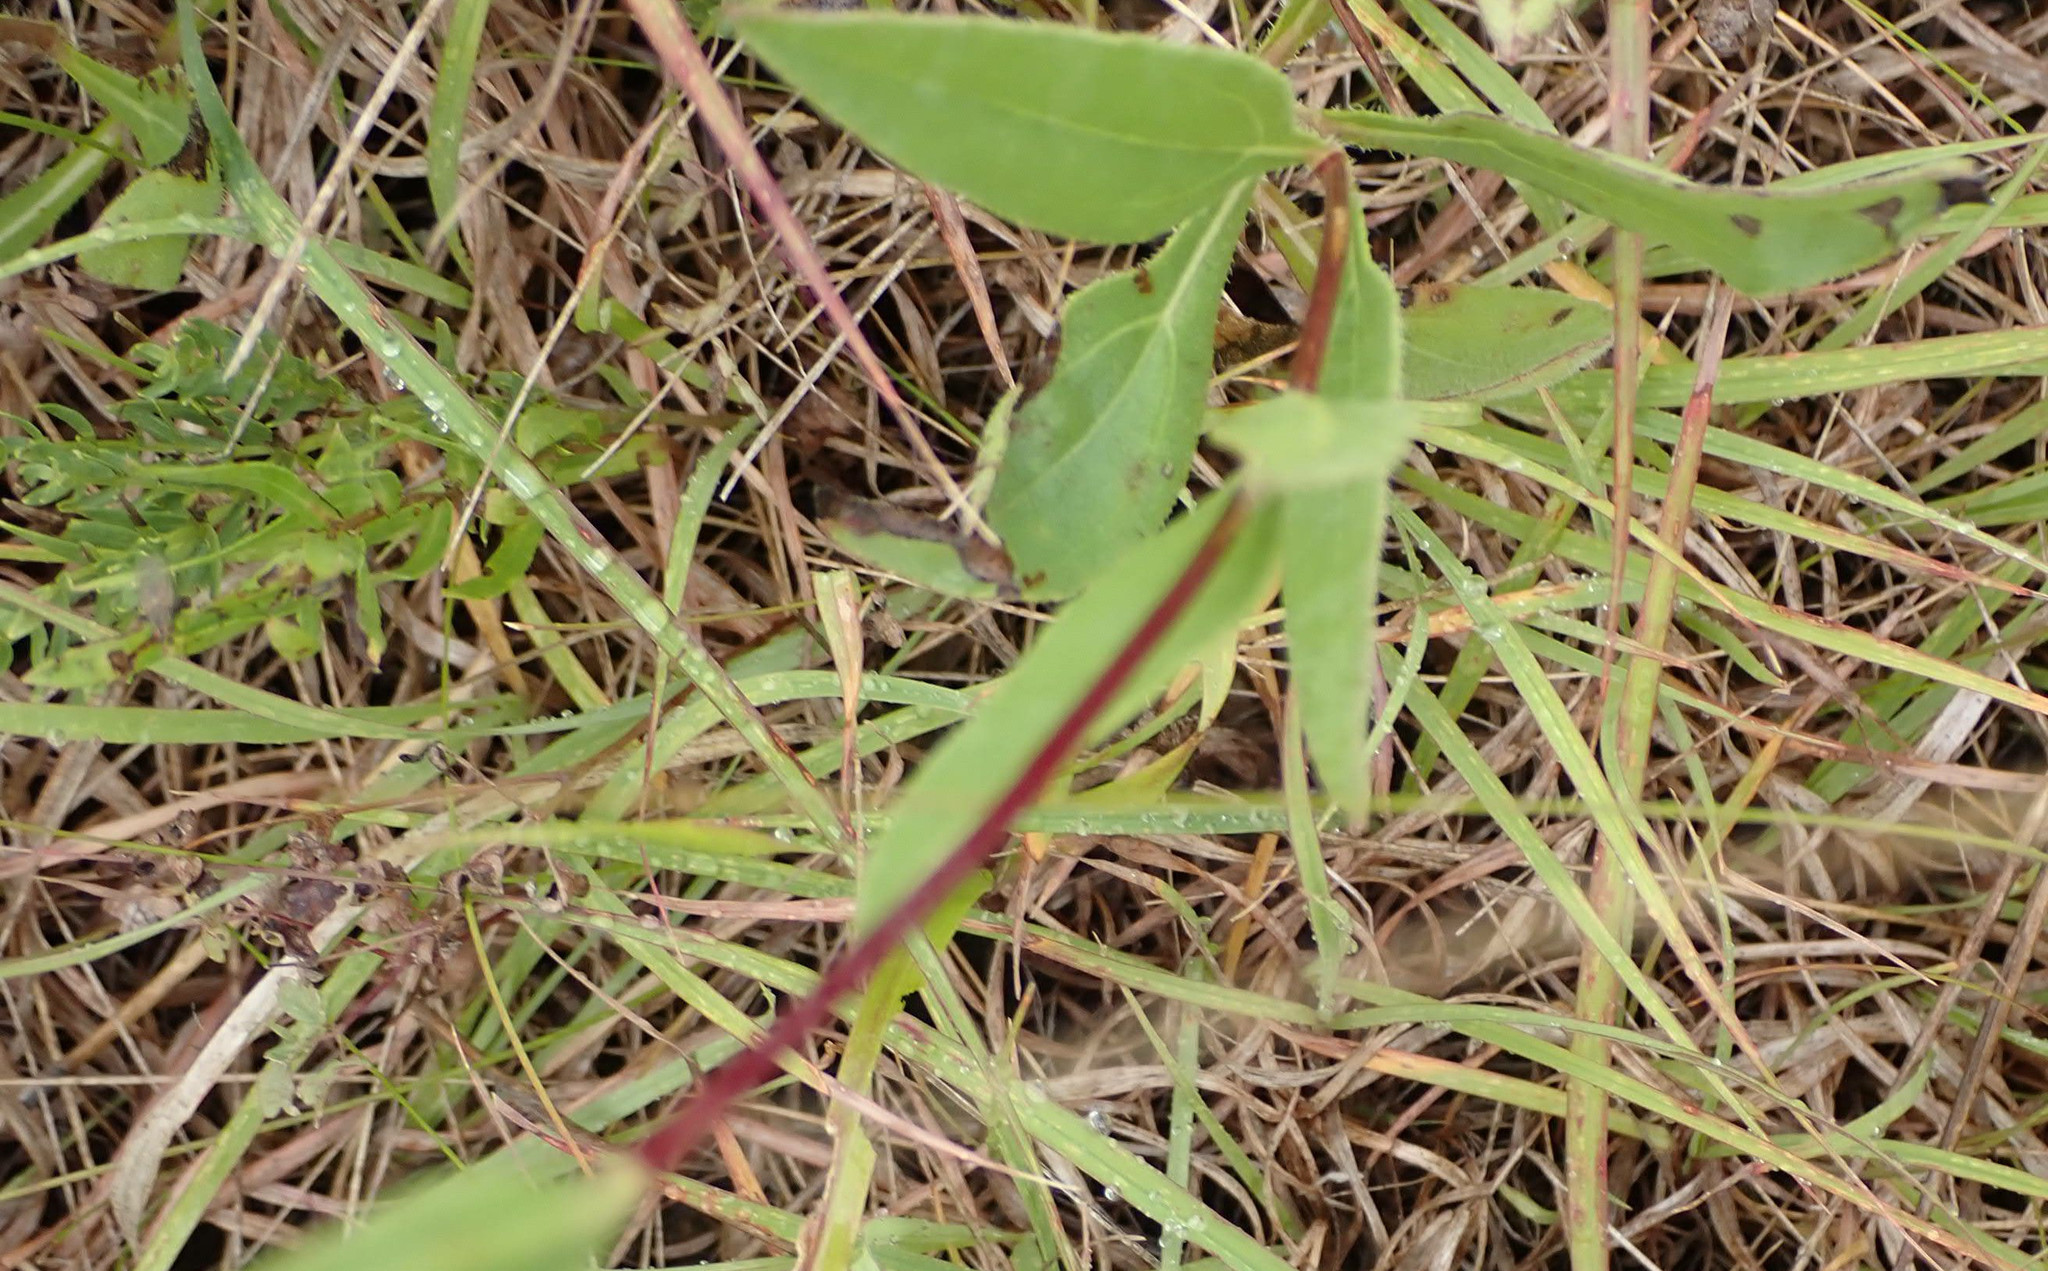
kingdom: Plantae
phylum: Tracheophyta
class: Magnoliopsida
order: Asterales
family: Asteraceae
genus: Helianthus
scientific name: Helianthus pauciflorus
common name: Stiff sunflower
